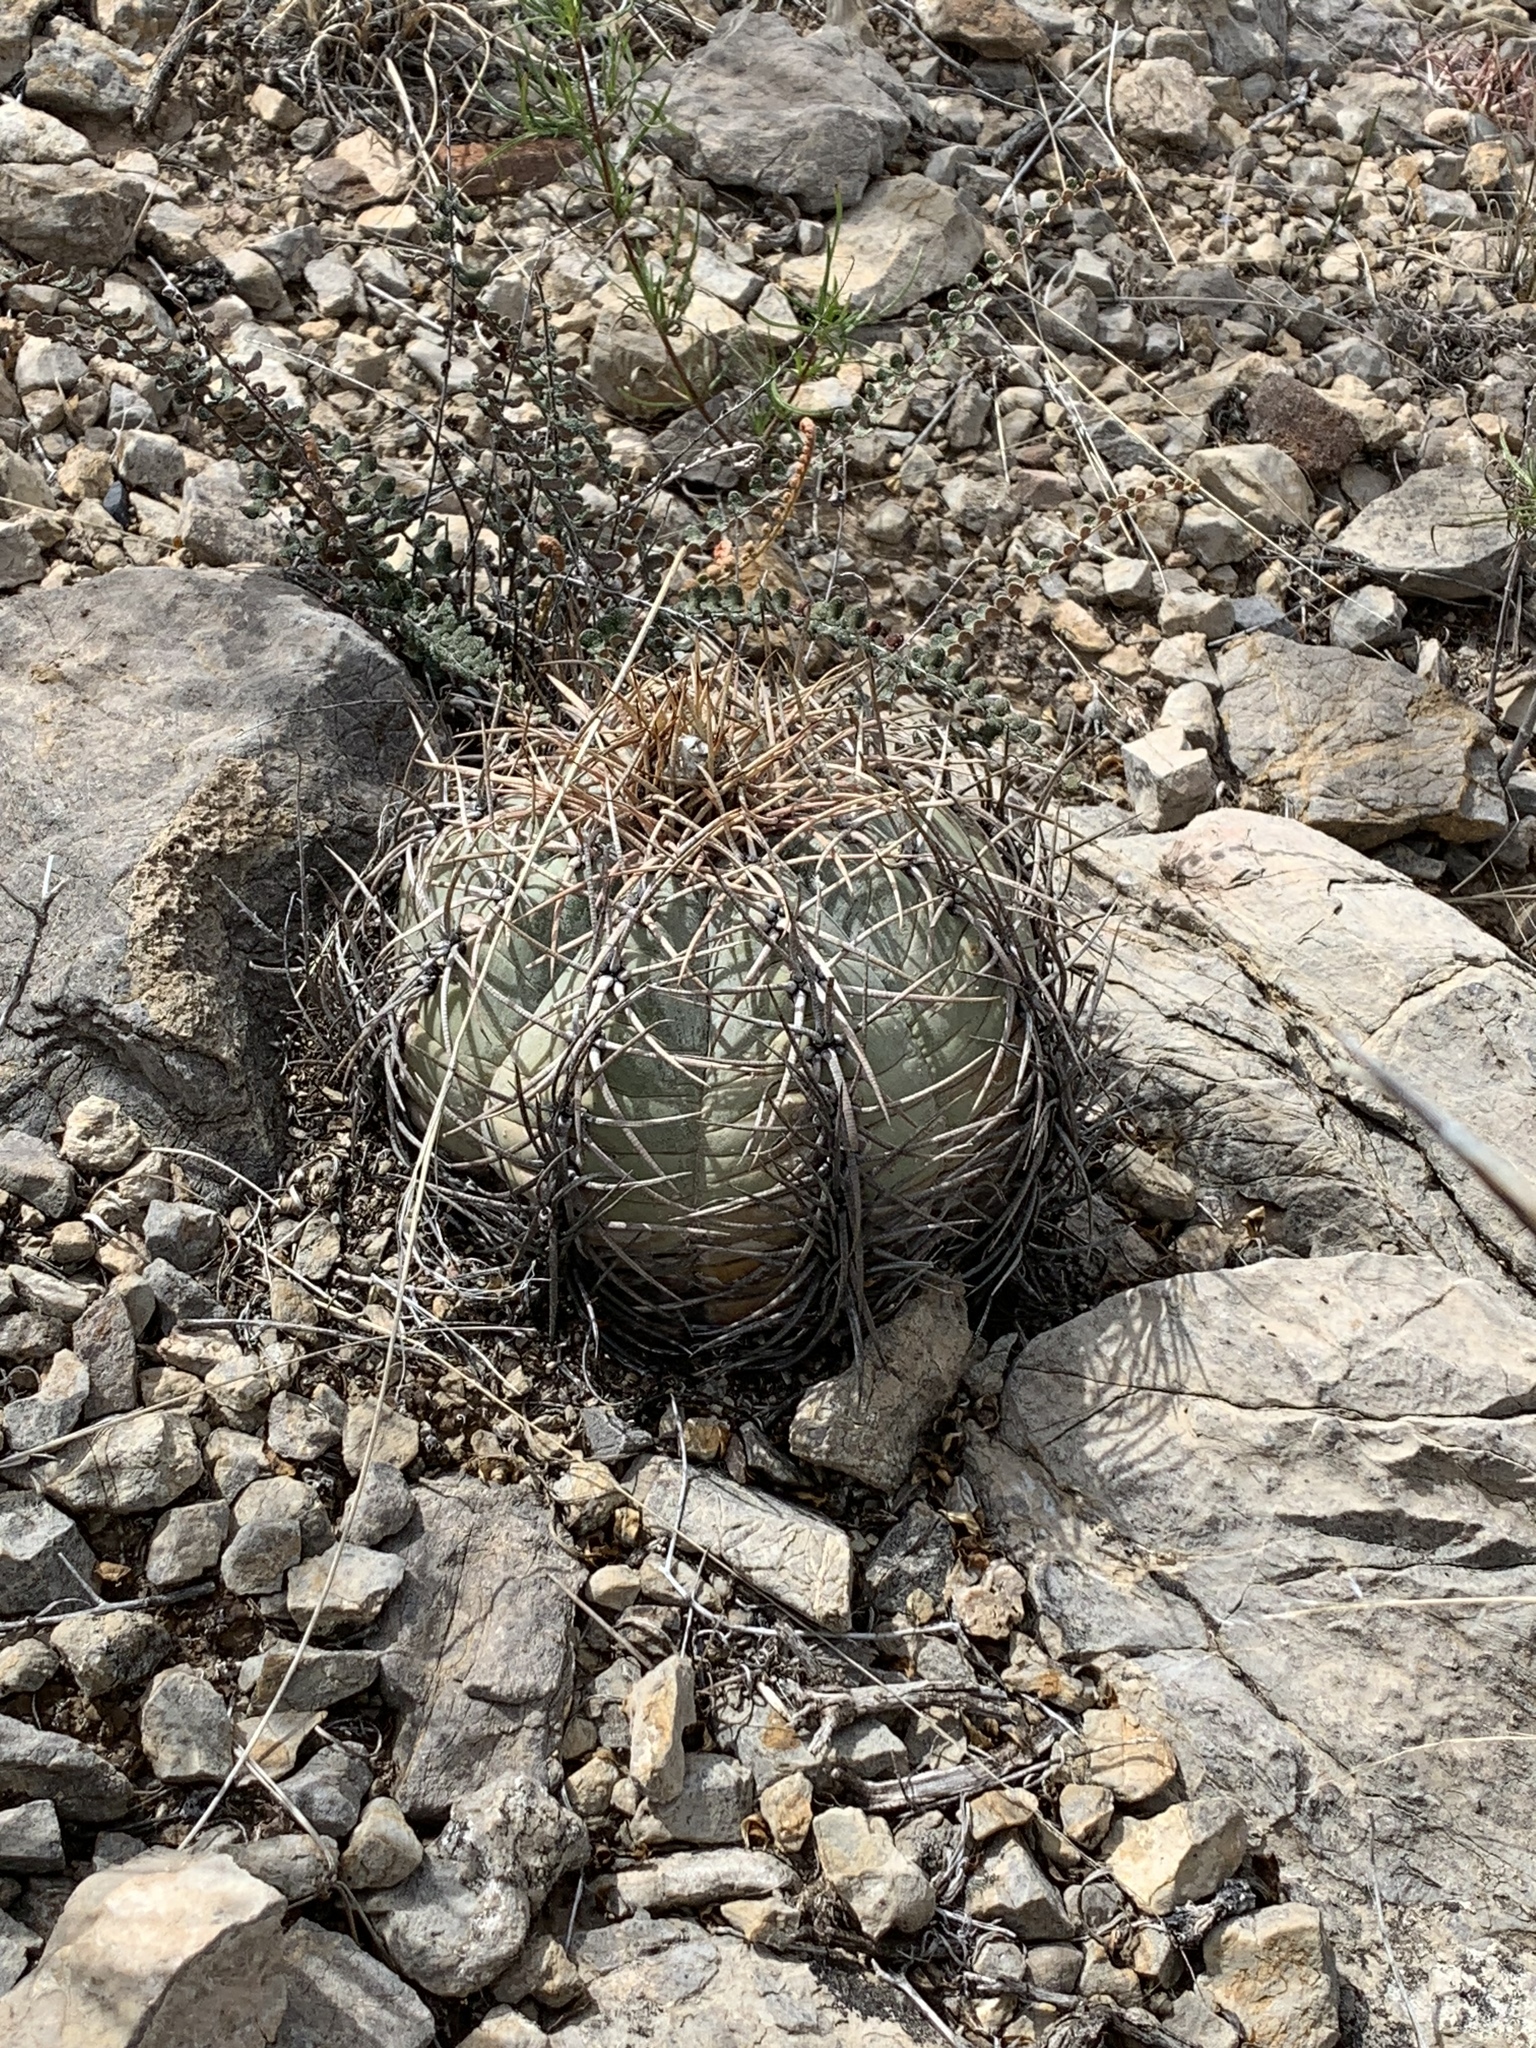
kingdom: Plantae
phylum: Tracheophyta
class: Magnoliopsida
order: Caryophyllales
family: Cactaceae
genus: Echinocactus
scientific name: Echinocactus horizonthalonius
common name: Devilshead
